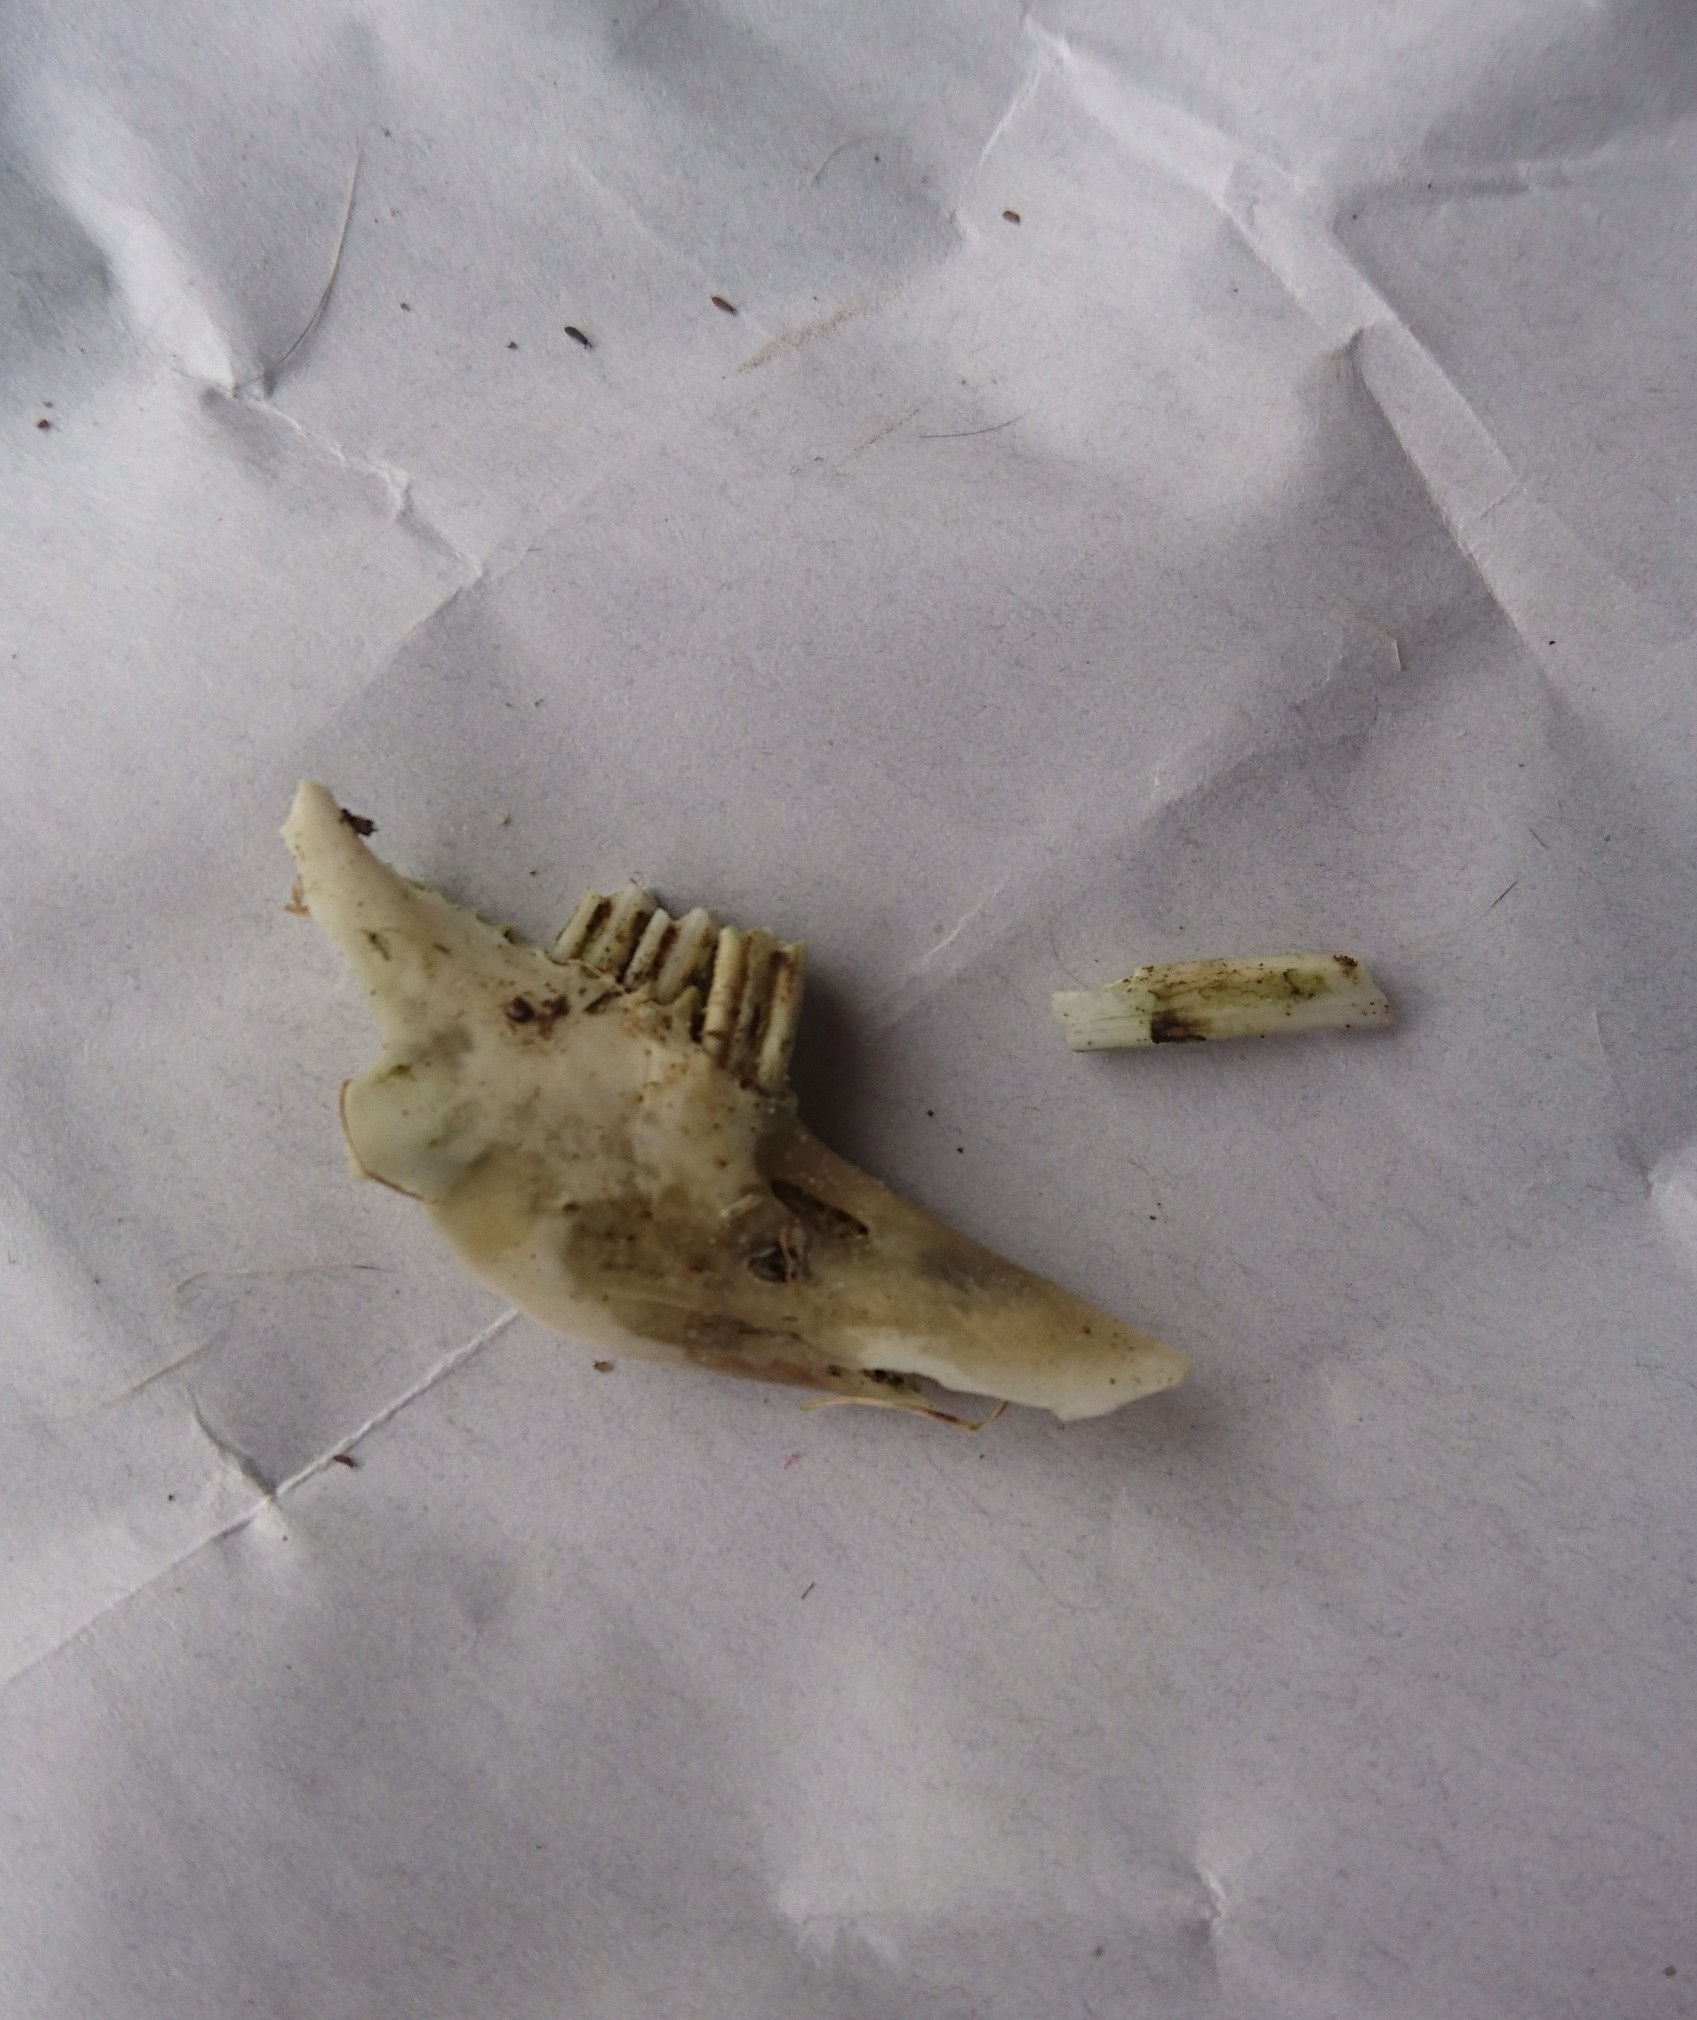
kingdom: Animalia
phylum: Chordata
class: Mammalia
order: Lagomorpha
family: Leporidae
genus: Oryctolagus
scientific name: Oryctolagus cuniculus
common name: European rabbit
